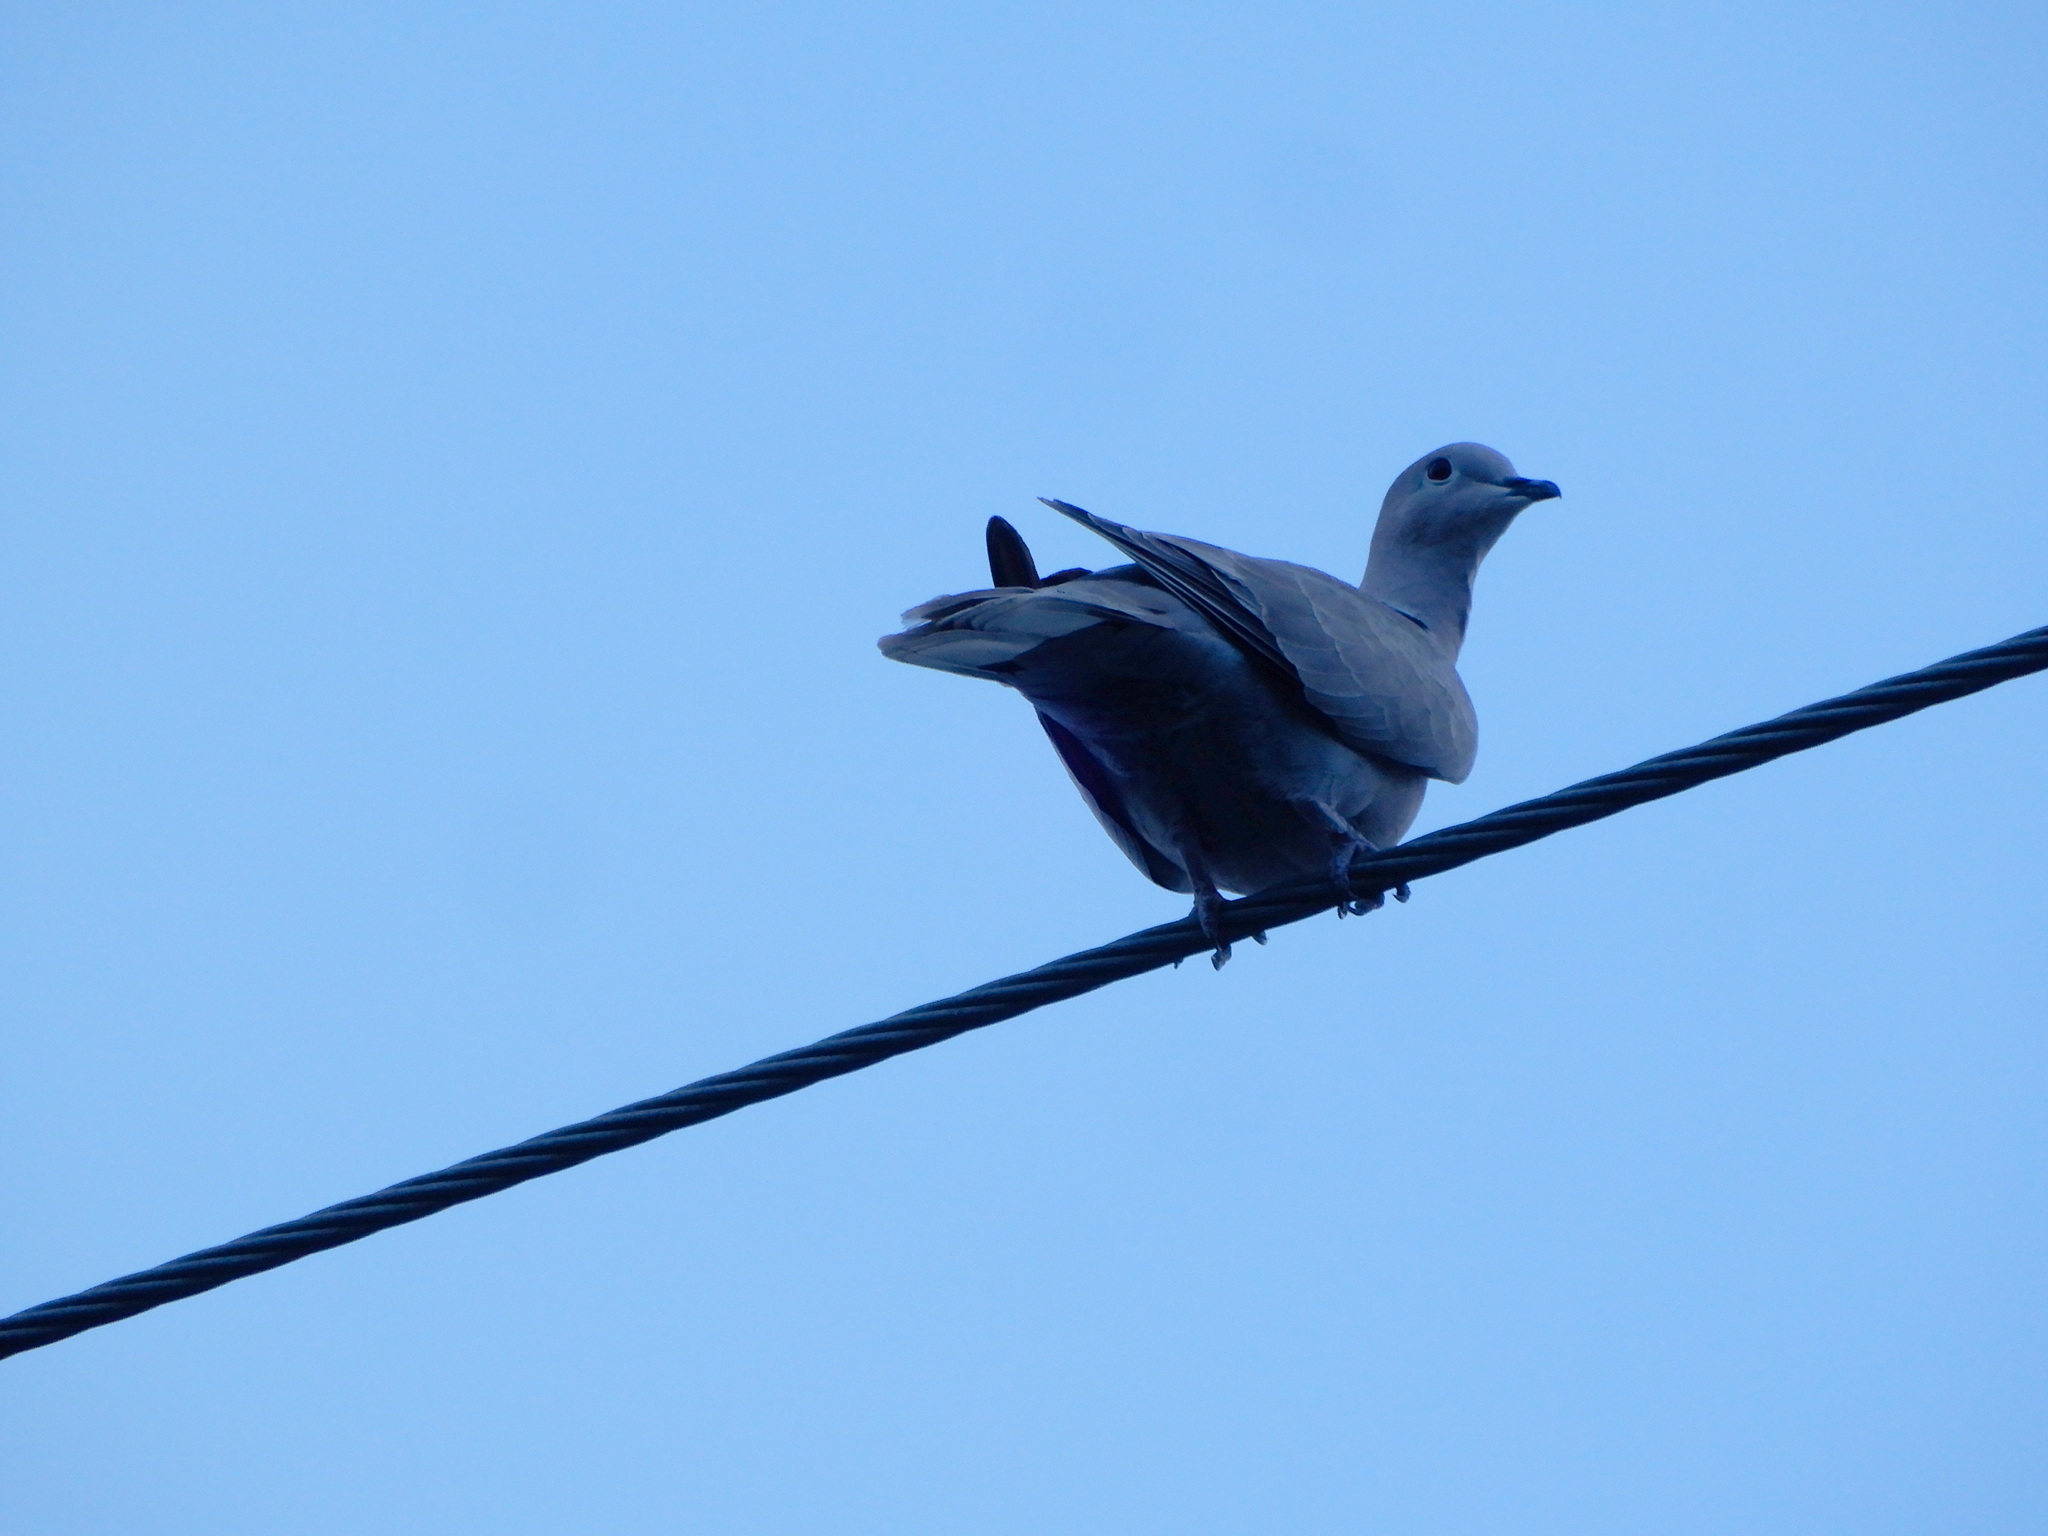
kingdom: Animalia
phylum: Chordata
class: Aves
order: Columbiformes
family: Columbidae
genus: Streptopelia
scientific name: Streptopelia decaocto
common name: Eurasian collared dove
